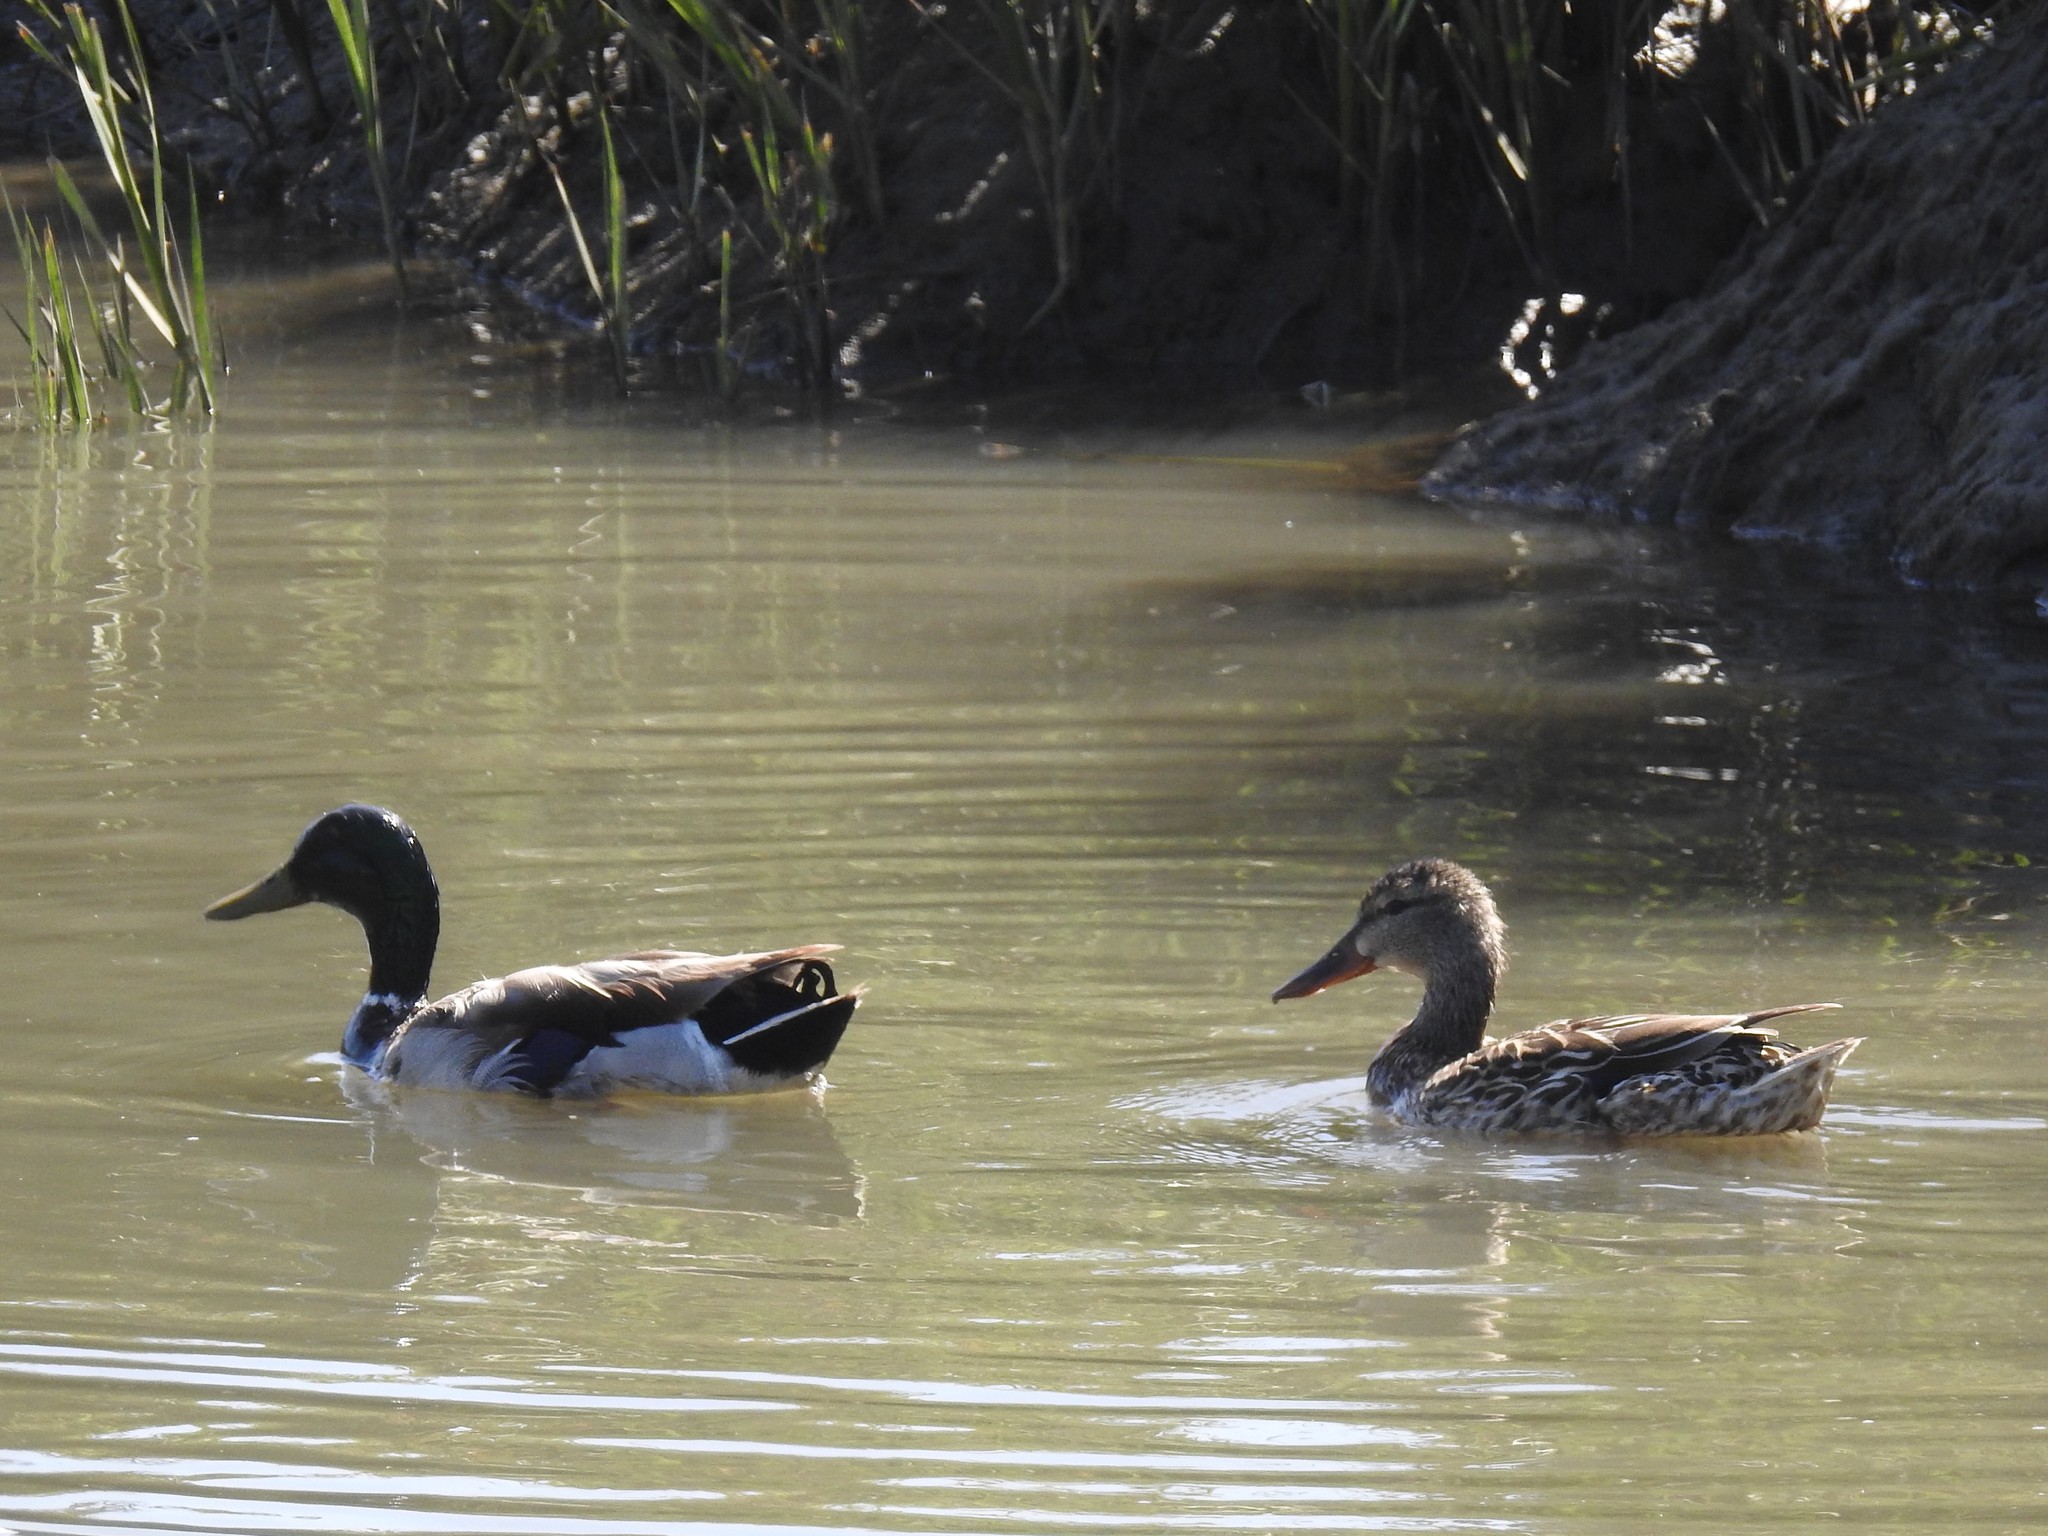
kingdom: Animalia
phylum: Chordata
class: Aves
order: Anseriformes
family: Anatidae
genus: Anas
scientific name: Anas platyrhynchos
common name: Mallard
